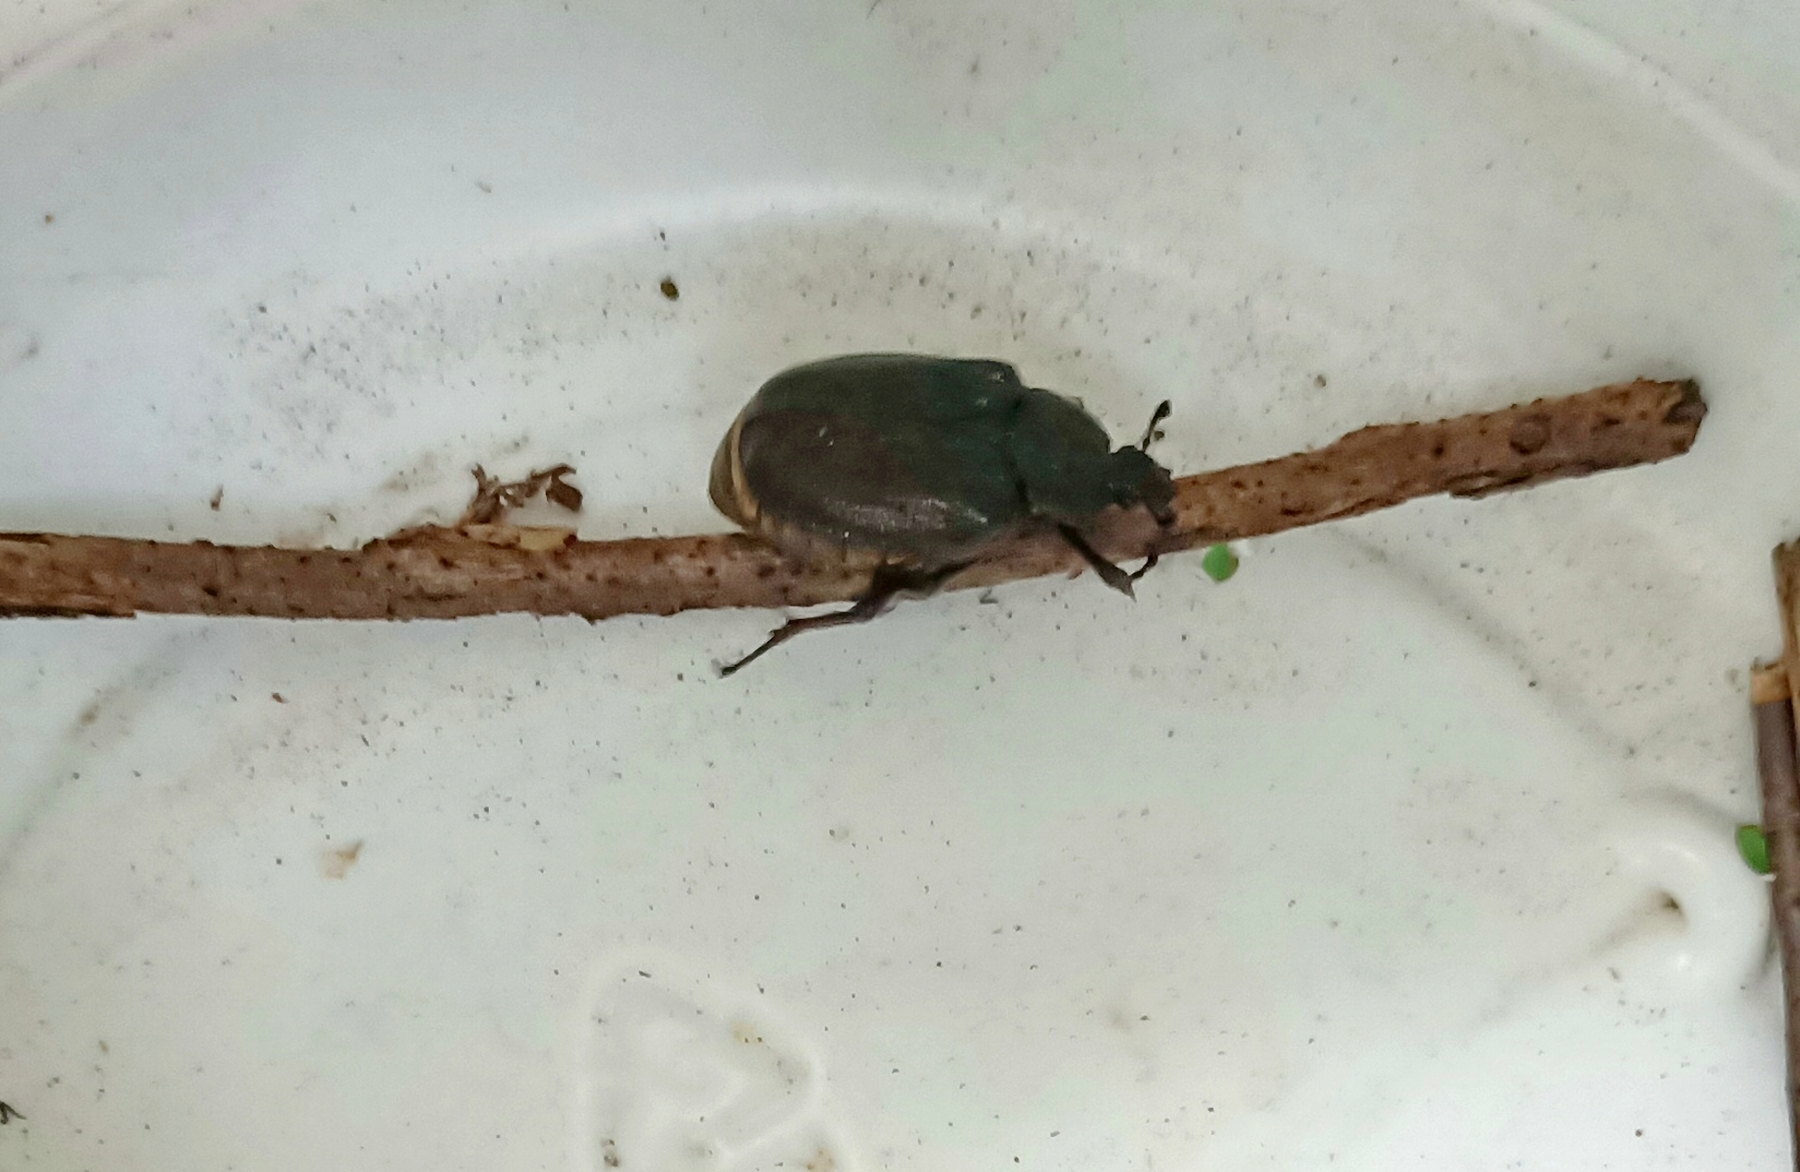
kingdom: Animalia
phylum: Arthropoda
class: Insecta
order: Coleoptera
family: Scarabaeidae
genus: Osmoderma
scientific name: Osmoderma barnabita
